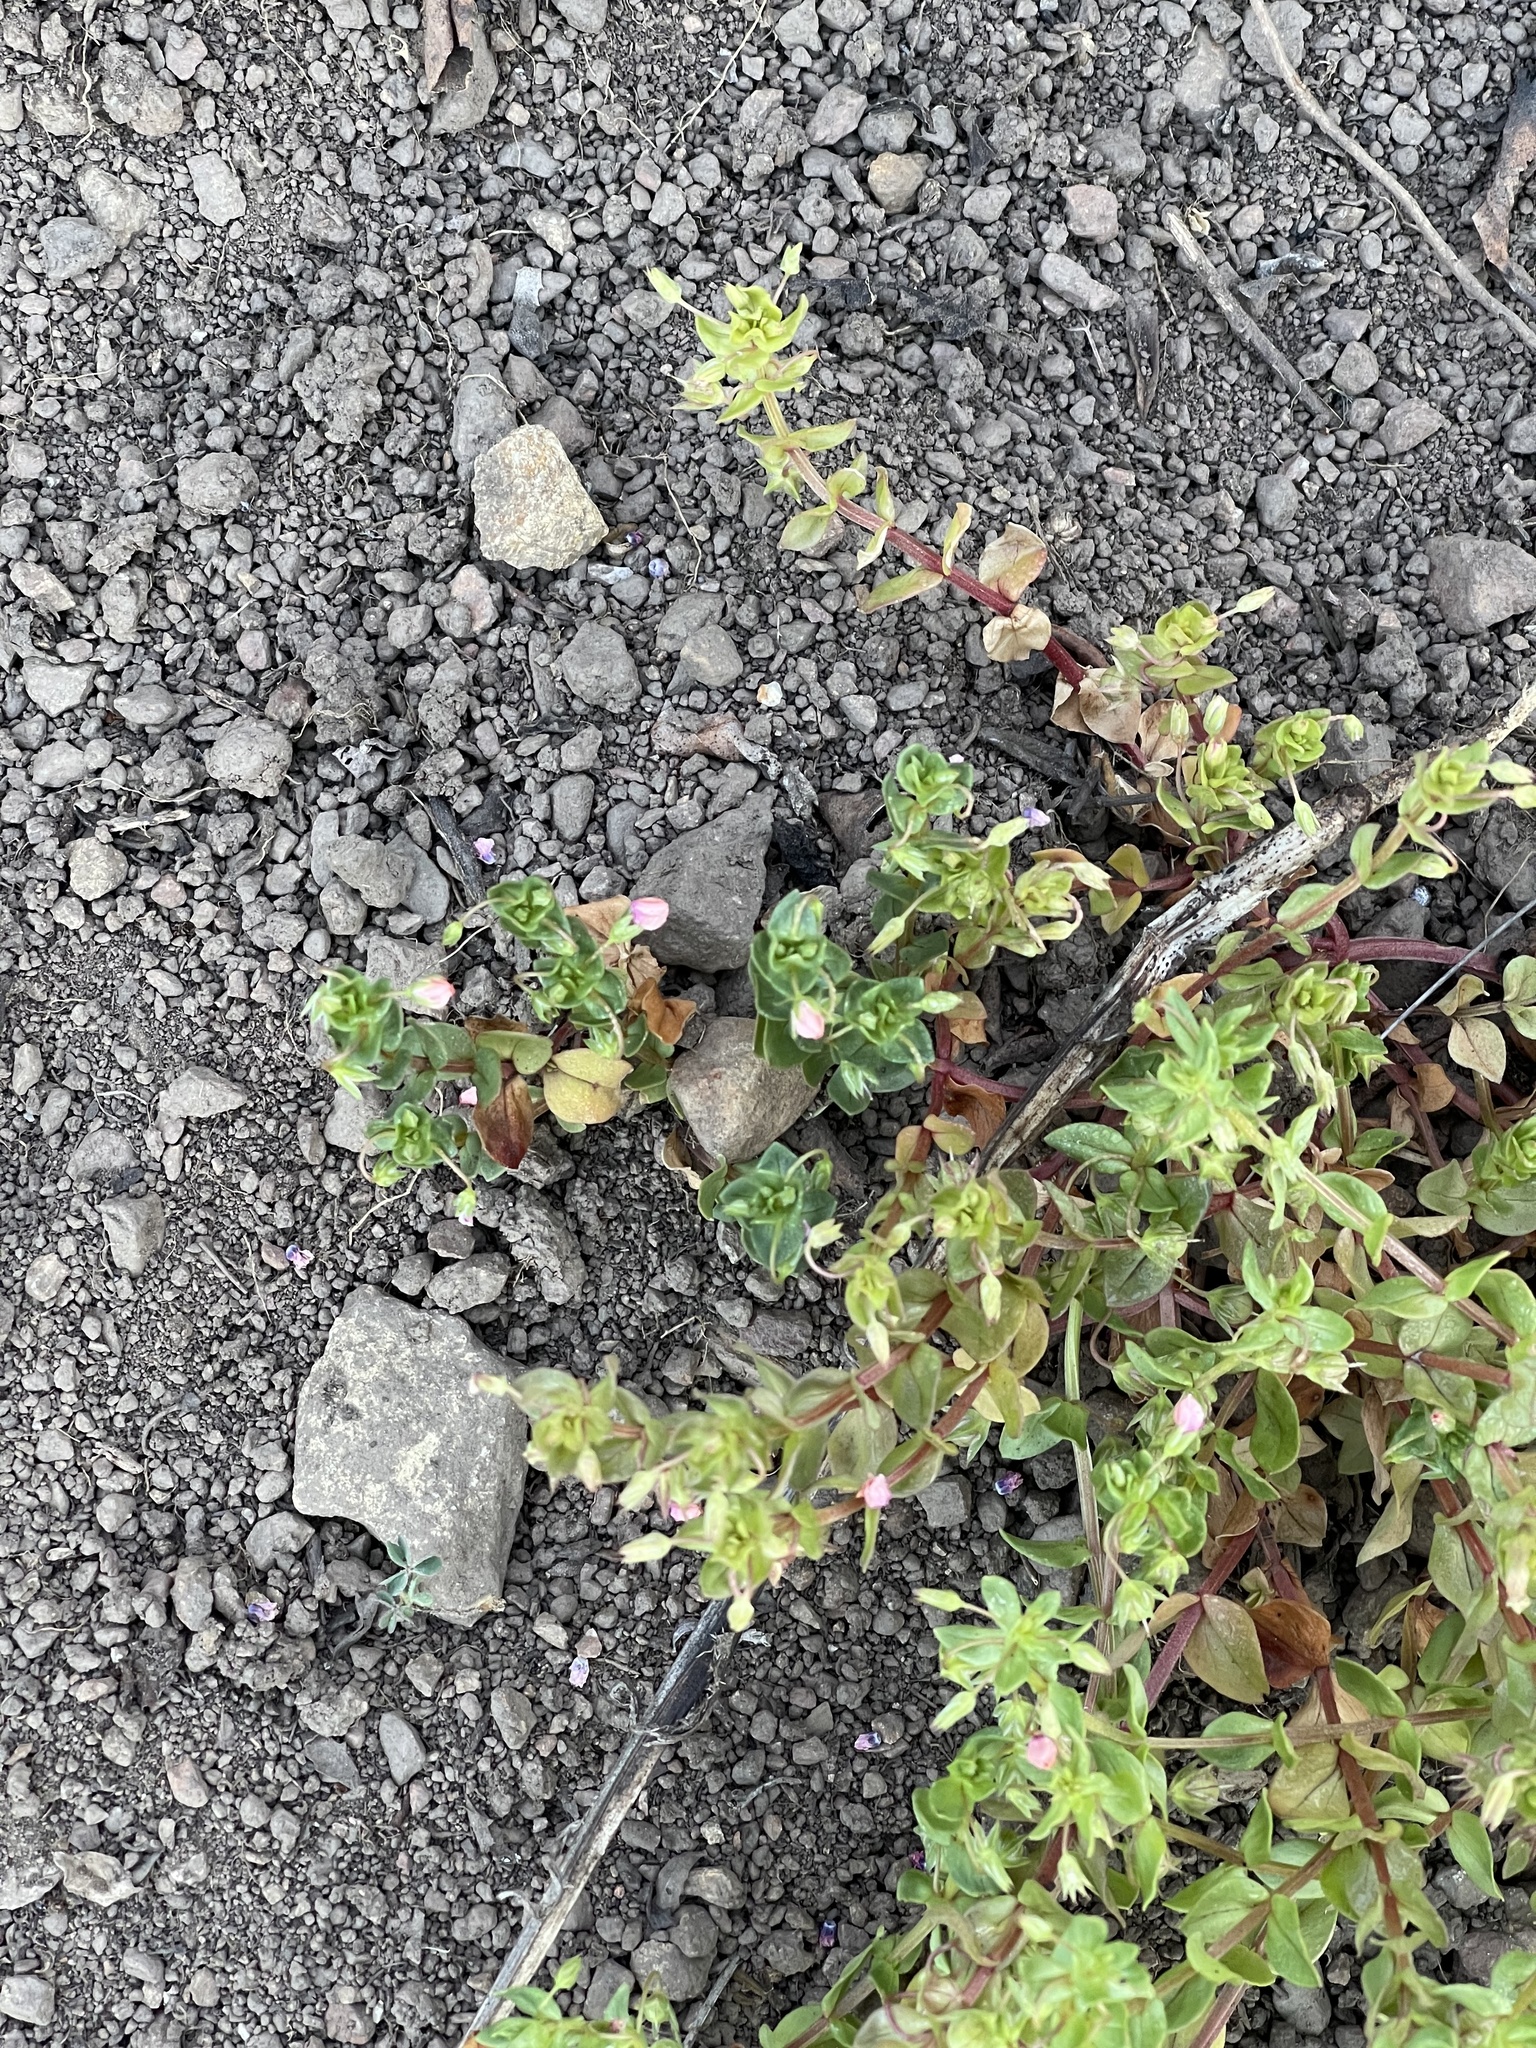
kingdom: Plantae
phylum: Tracheophyta
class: Magnoliopsida
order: Ericales
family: Primulaceae
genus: Lysimachia
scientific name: Lysimachia arvensis
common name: Scarlet pimpernel
